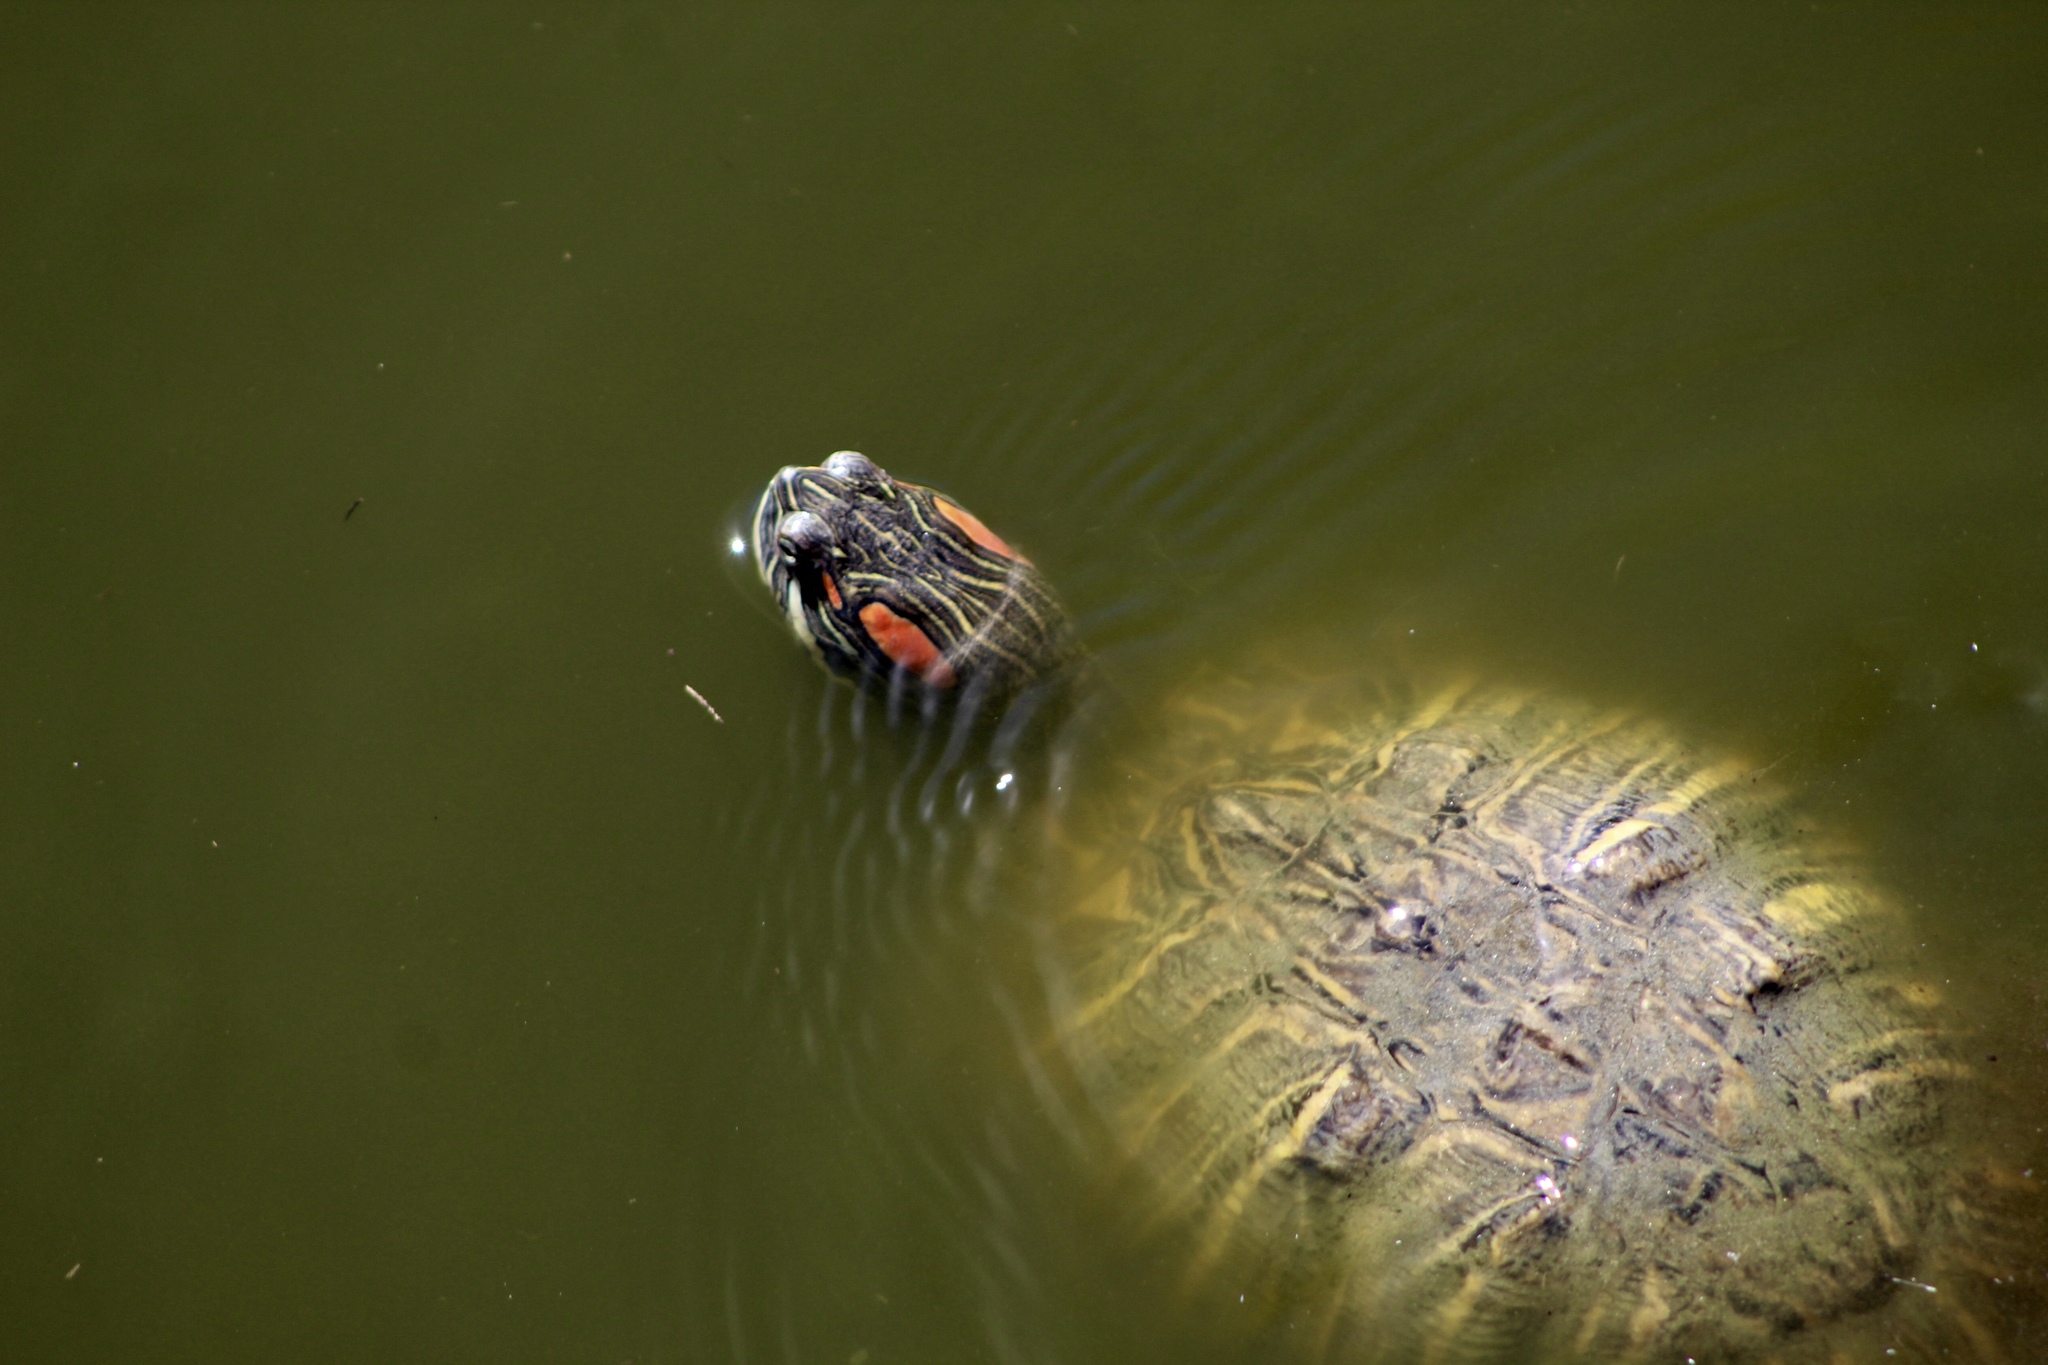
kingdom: Animalia
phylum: Chordata
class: Testudines
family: Emydidae
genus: Trachemys
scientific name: Trachemys scripta
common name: Slider
